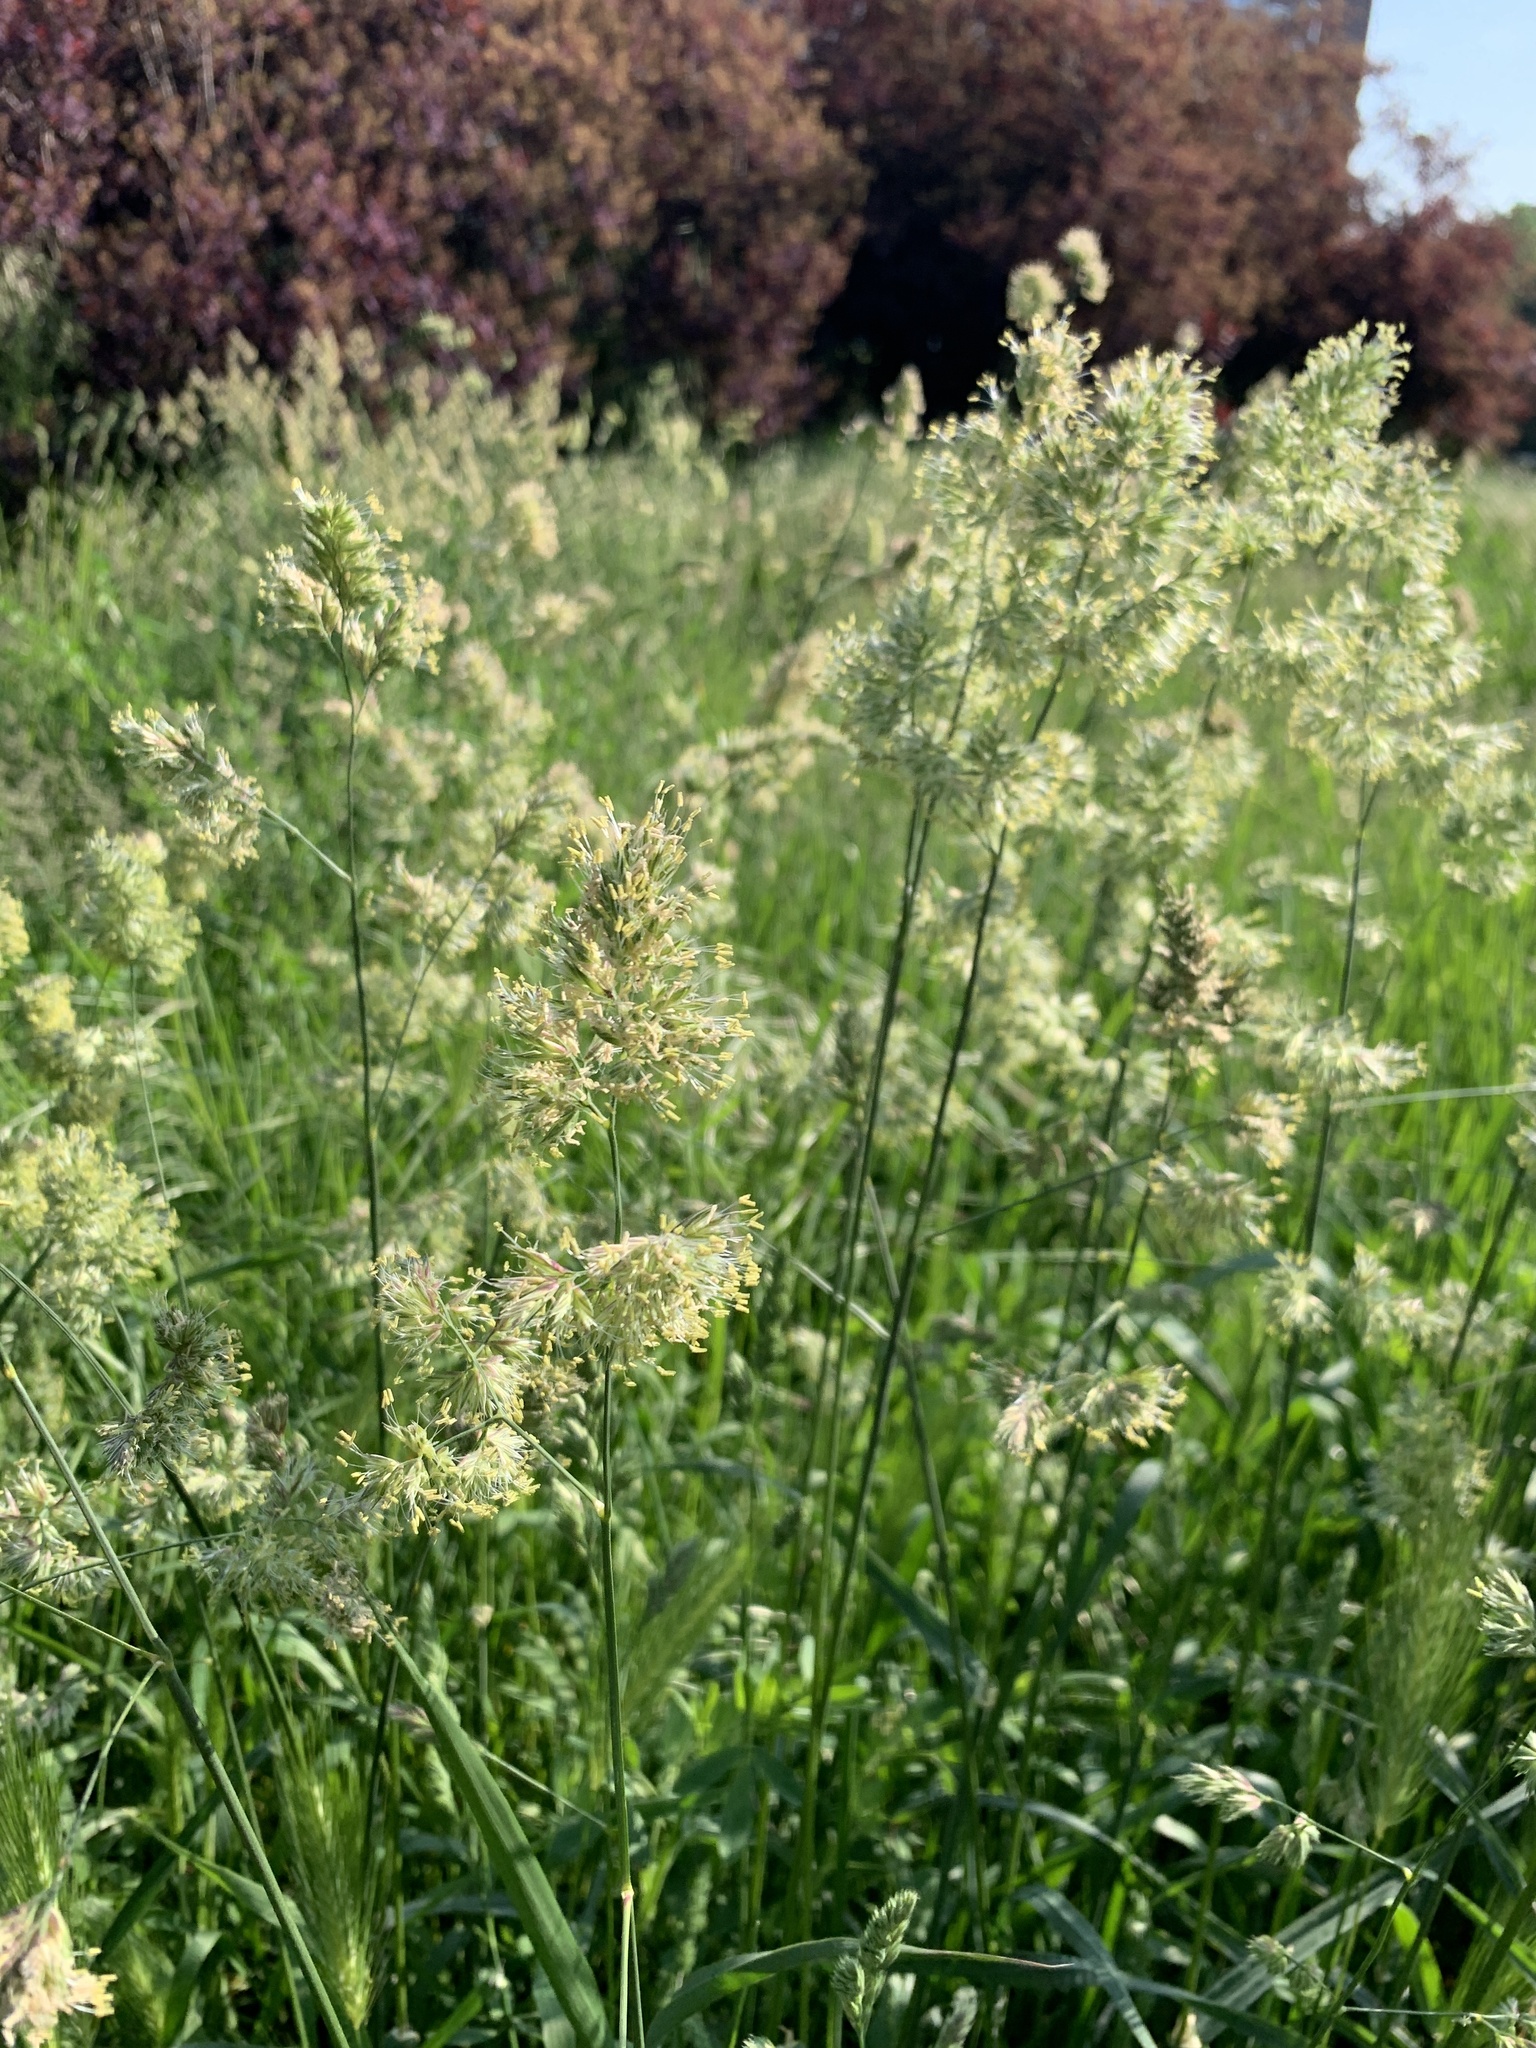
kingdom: Plantae
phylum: Tracheophyta
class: Liliopsida
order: Poales
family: Poaceae
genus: Dactylis
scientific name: Dactylis glomerata
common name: Orchardgrass
